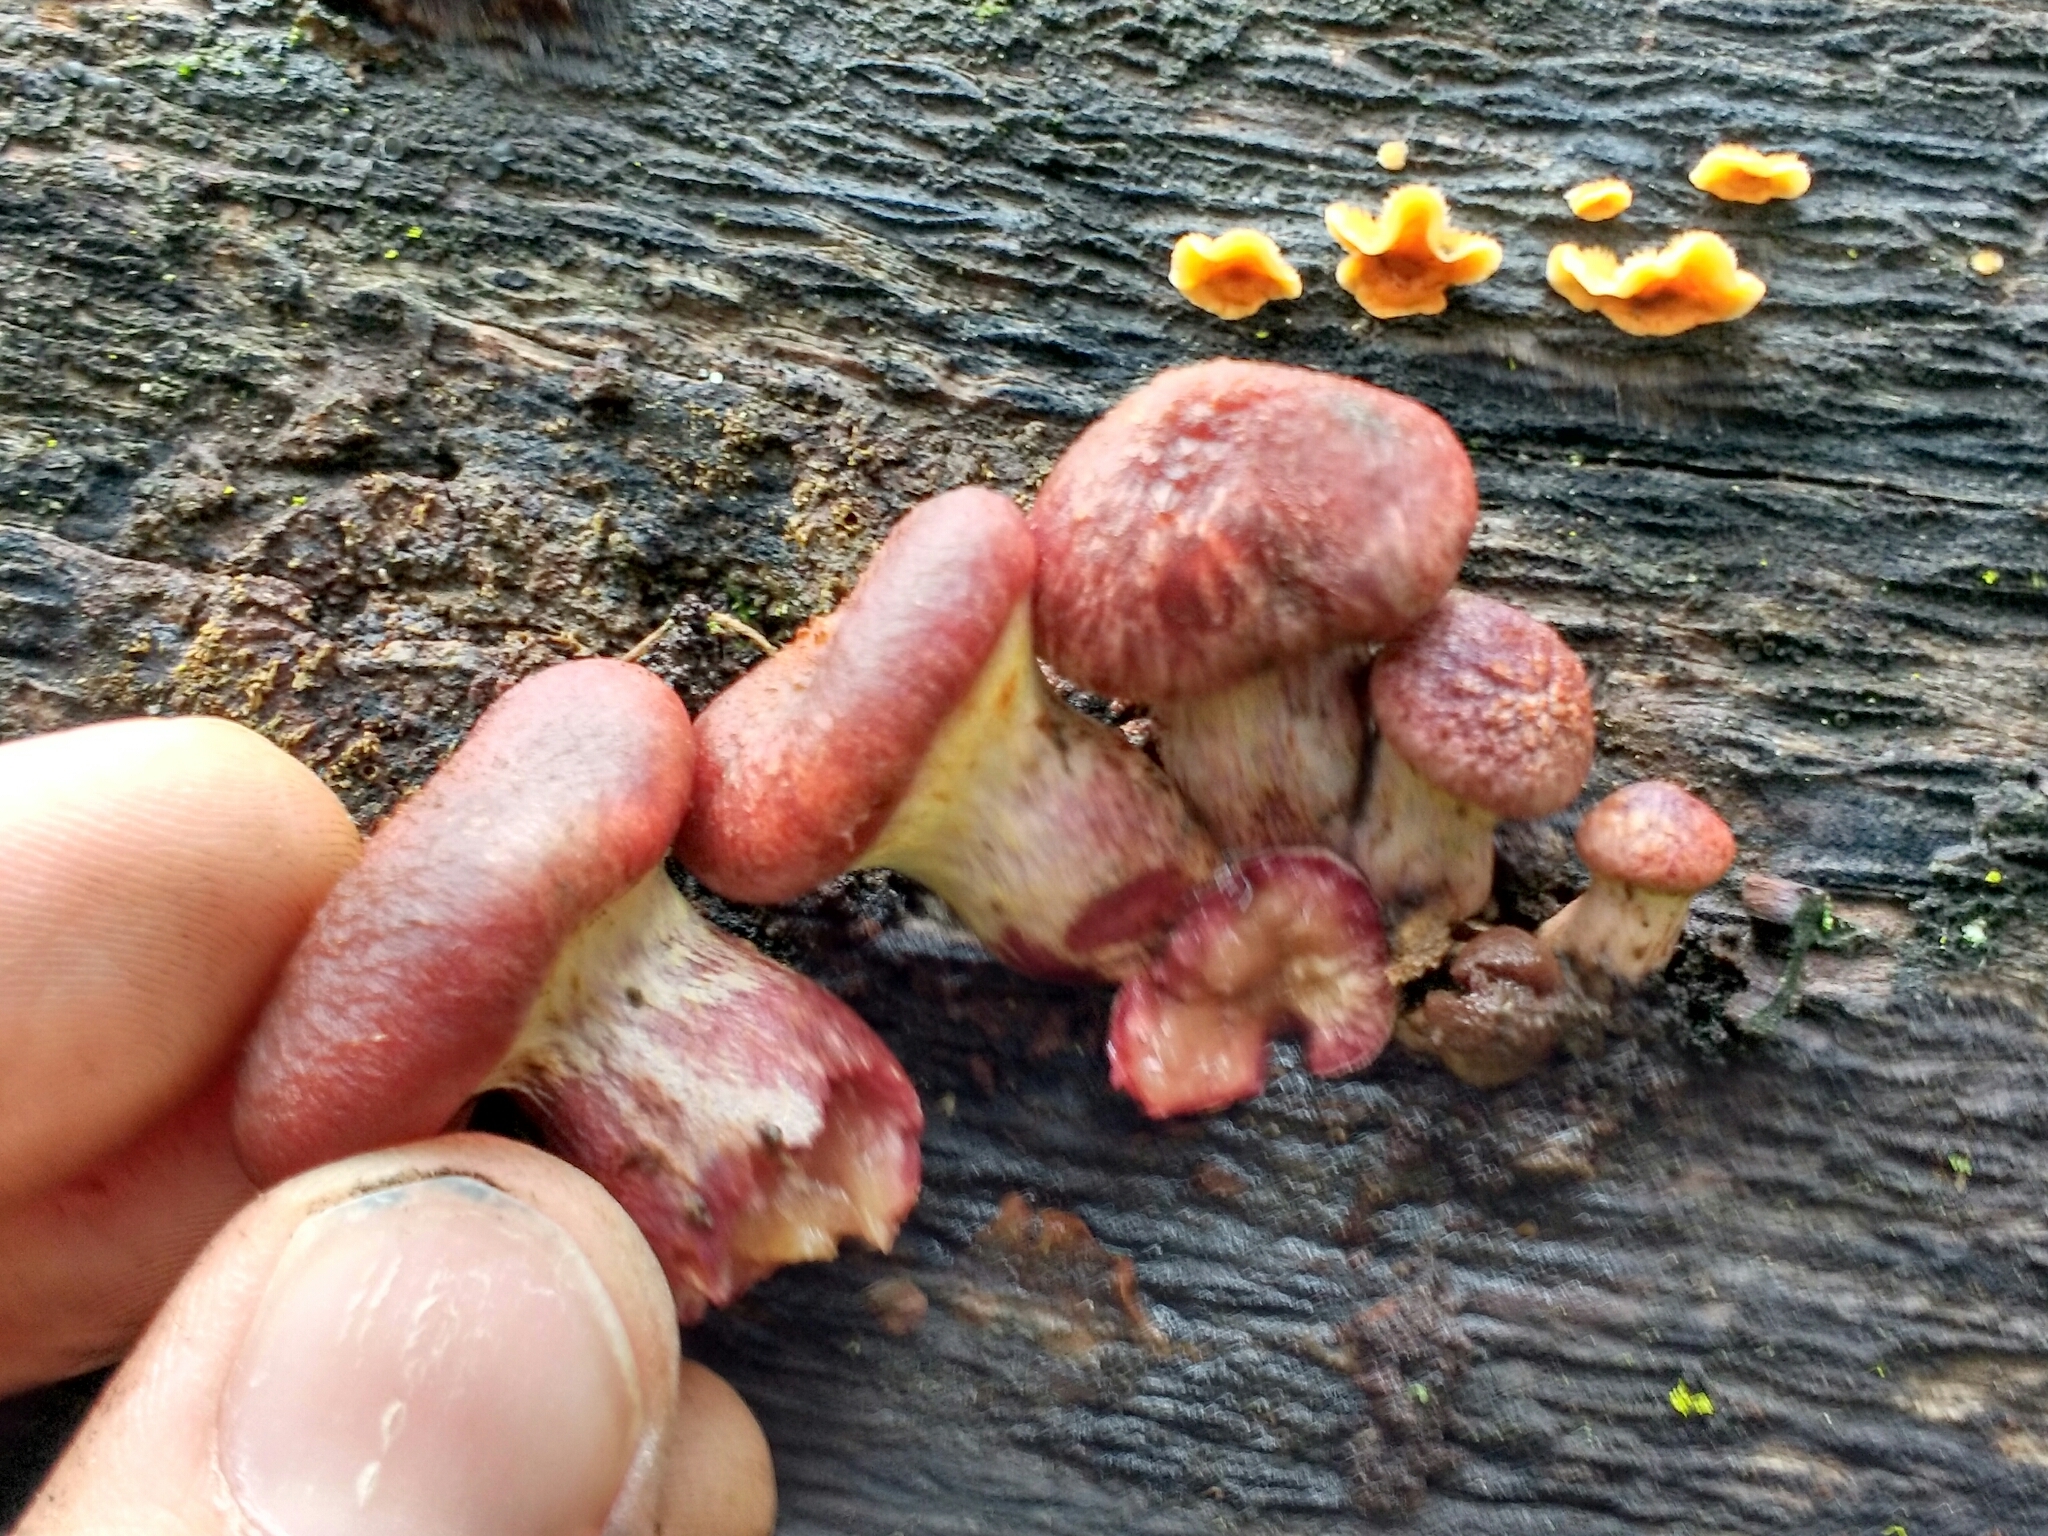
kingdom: Fungi
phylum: Basidiomycota
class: Agaricomycetes
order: Agaricales
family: Hymenogastraceae
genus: Gymnopilus
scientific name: Gymnopilus thiersii
